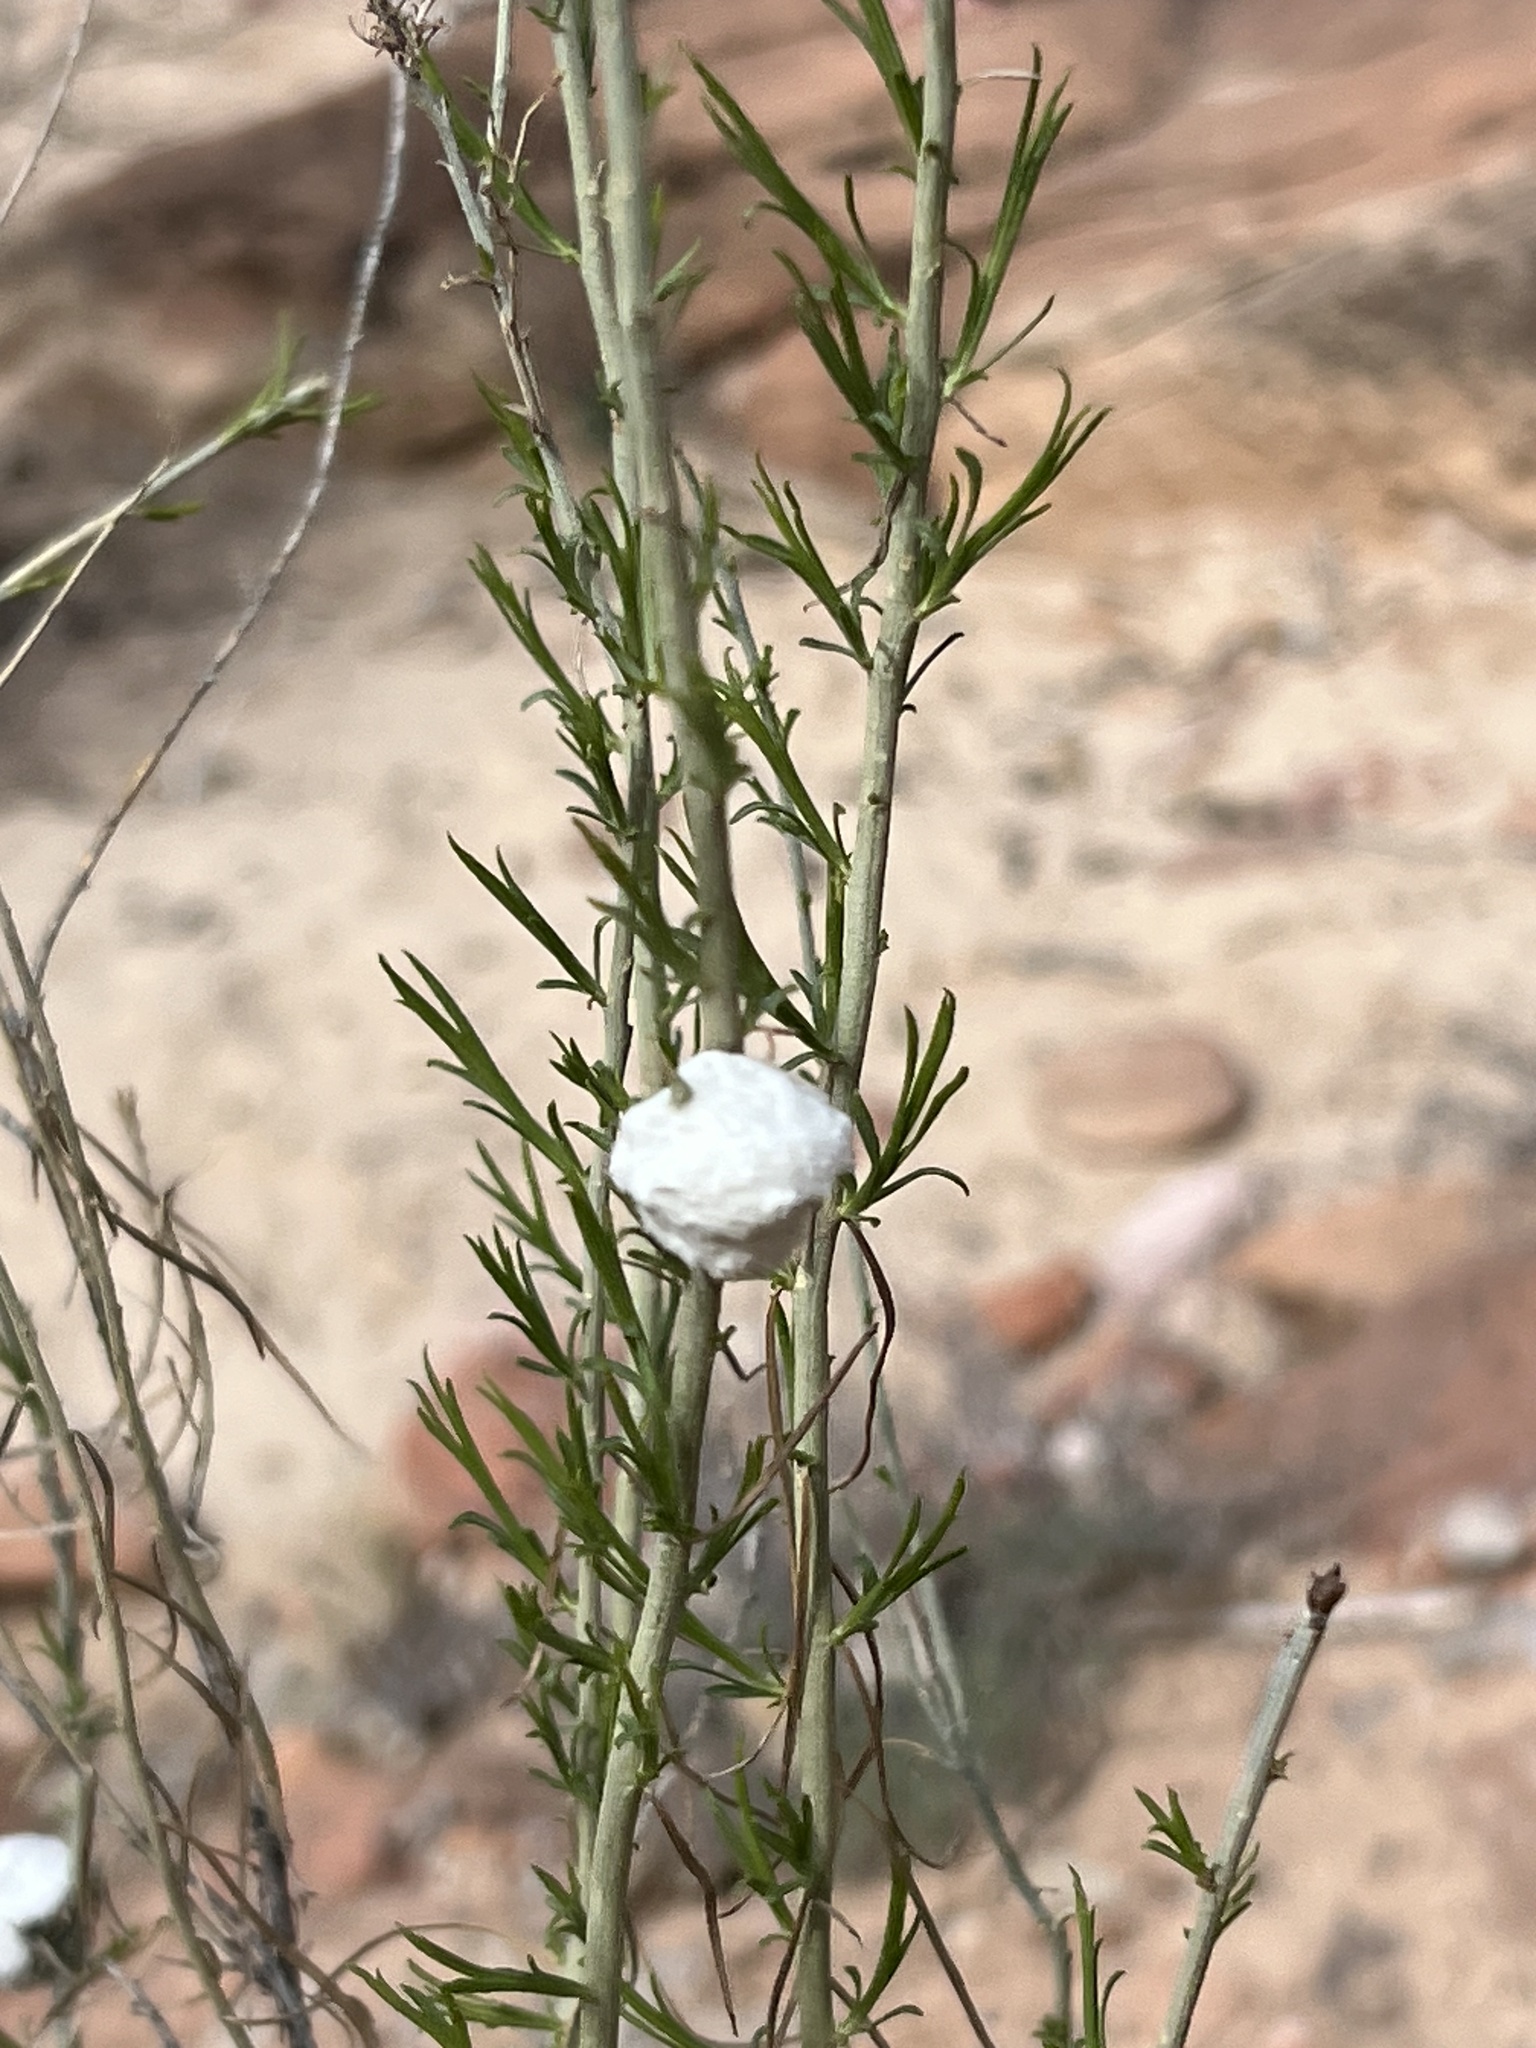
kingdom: Animalia
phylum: Arthropoda
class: Insecta
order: Diptera
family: Tephritidae
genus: Aciurina
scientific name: Aciurina bigeloviae
